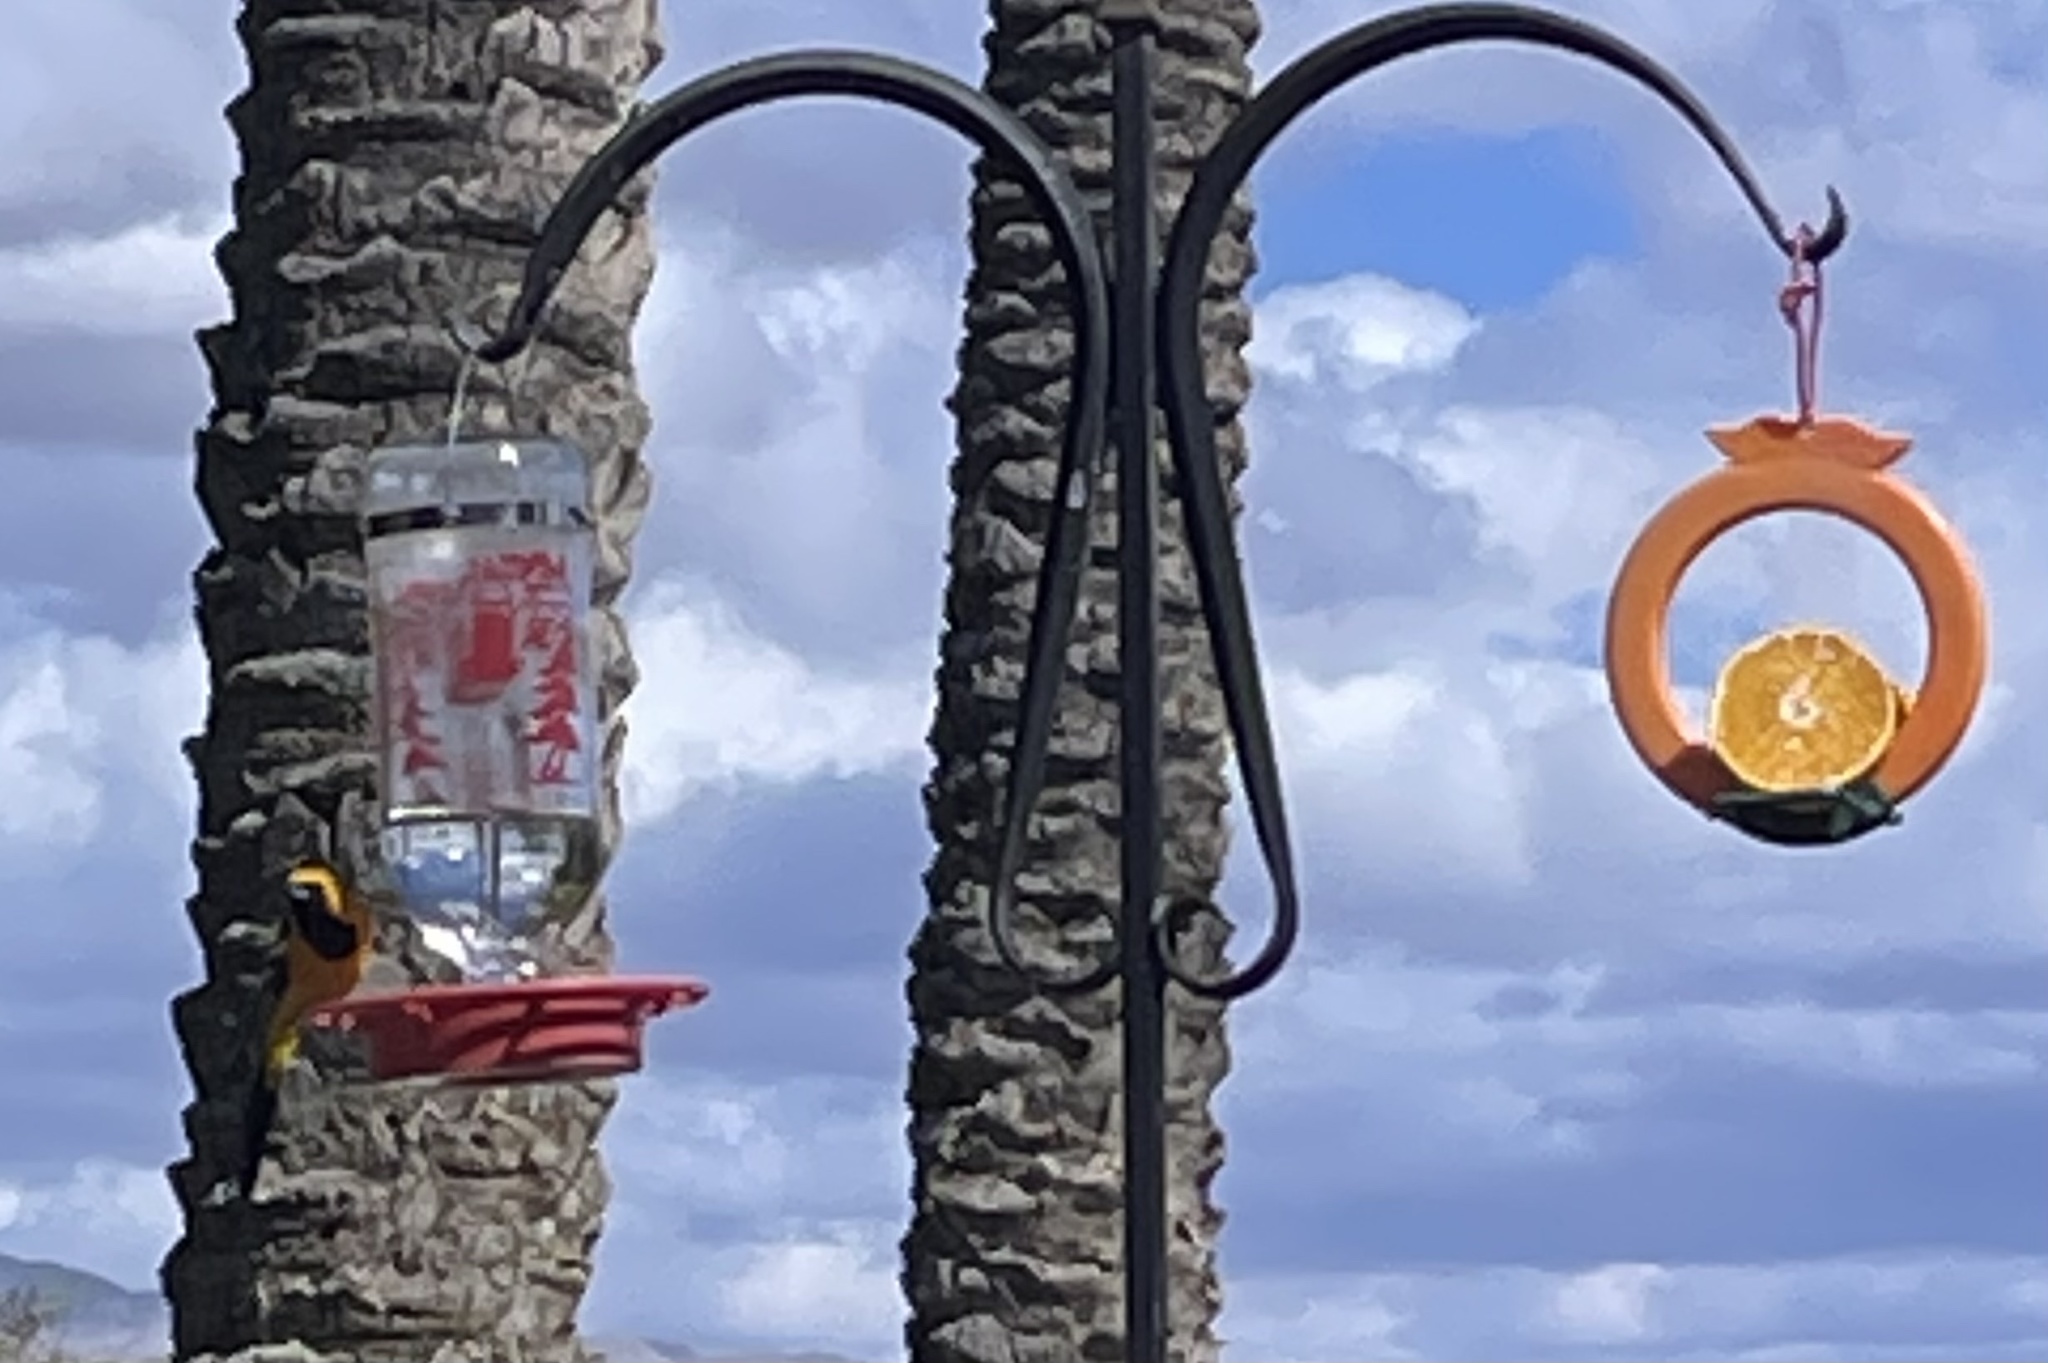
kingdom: Animalia
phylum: Chordata
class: Aves
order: Passeriformes
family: Icteridae
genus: Icterus
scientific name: Icterus cucullatus
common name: Hooded oriole
